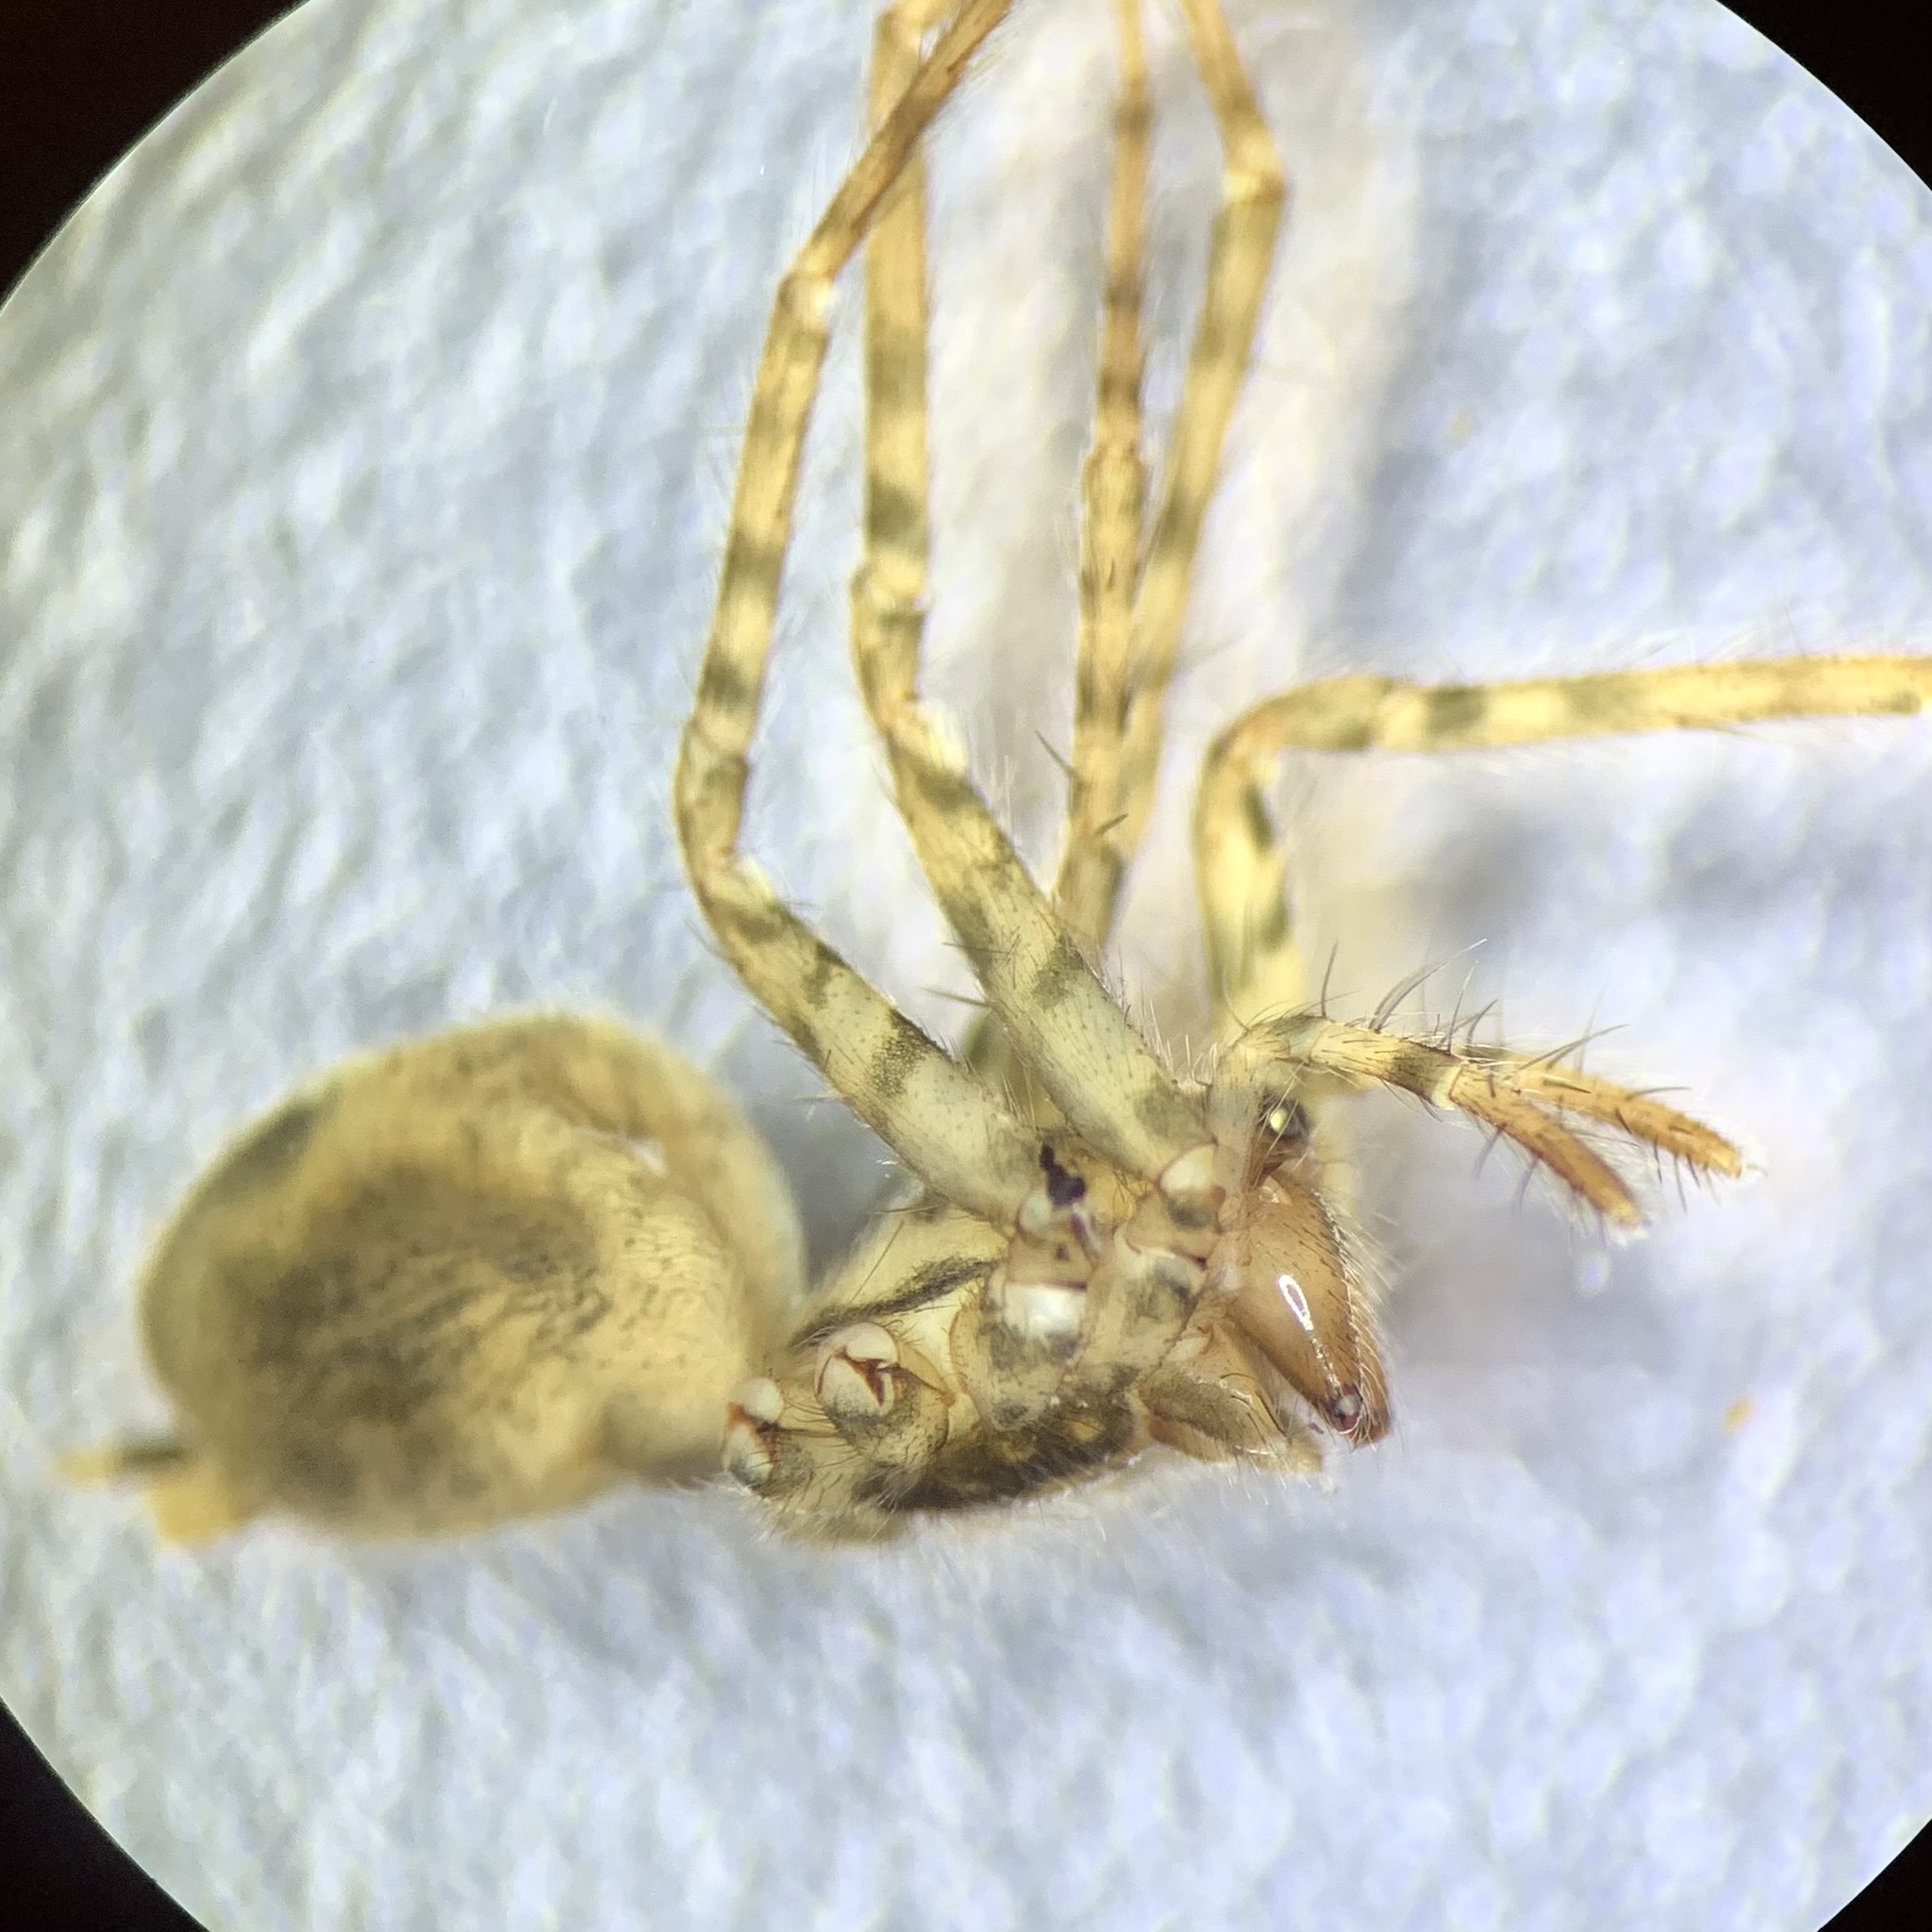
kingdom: Animalia
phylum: Arthropoda
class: Arachnida
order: Araneae
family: Agelenidae
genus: Tegenaria
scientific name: Tegenaria silvestris
